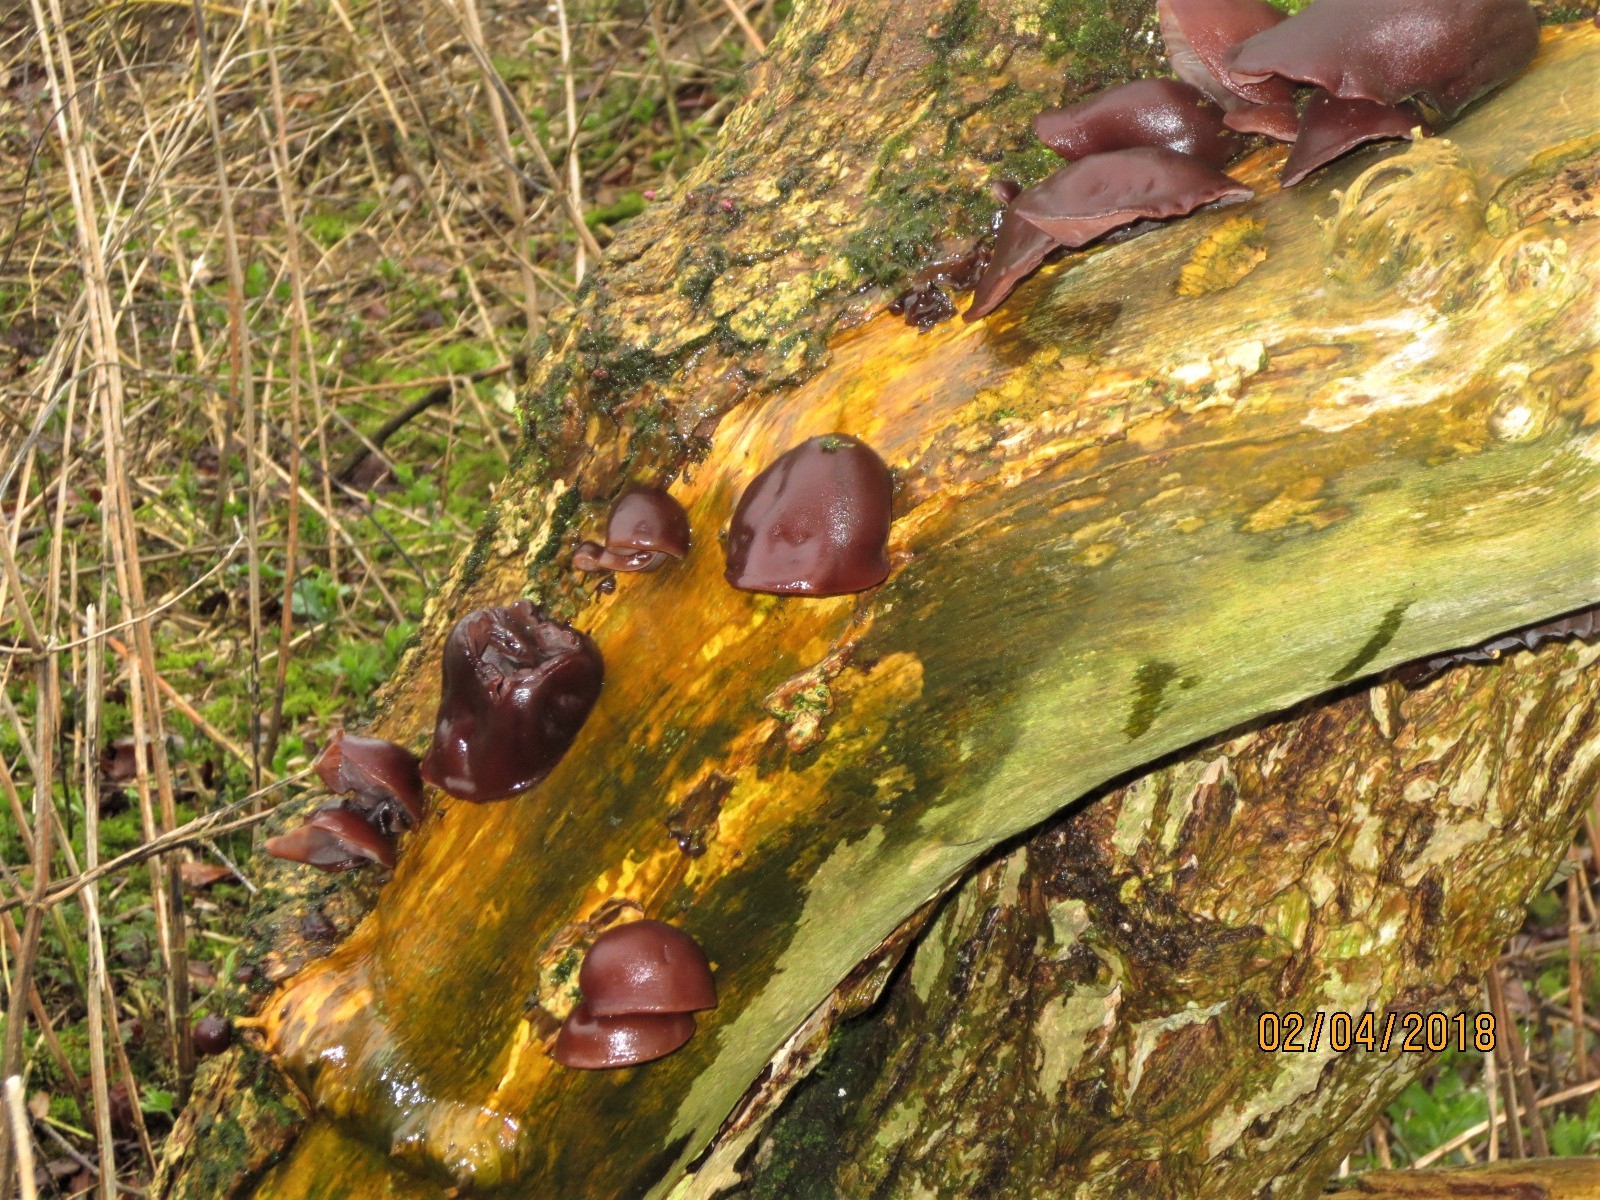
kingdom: Fungi
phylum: Basidiomycota
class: Agaricomycetes
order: Auriculariales
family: Auriculariaceae
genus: Auricularia
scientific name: Auricularia auricula-judae
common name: Jelly ear
